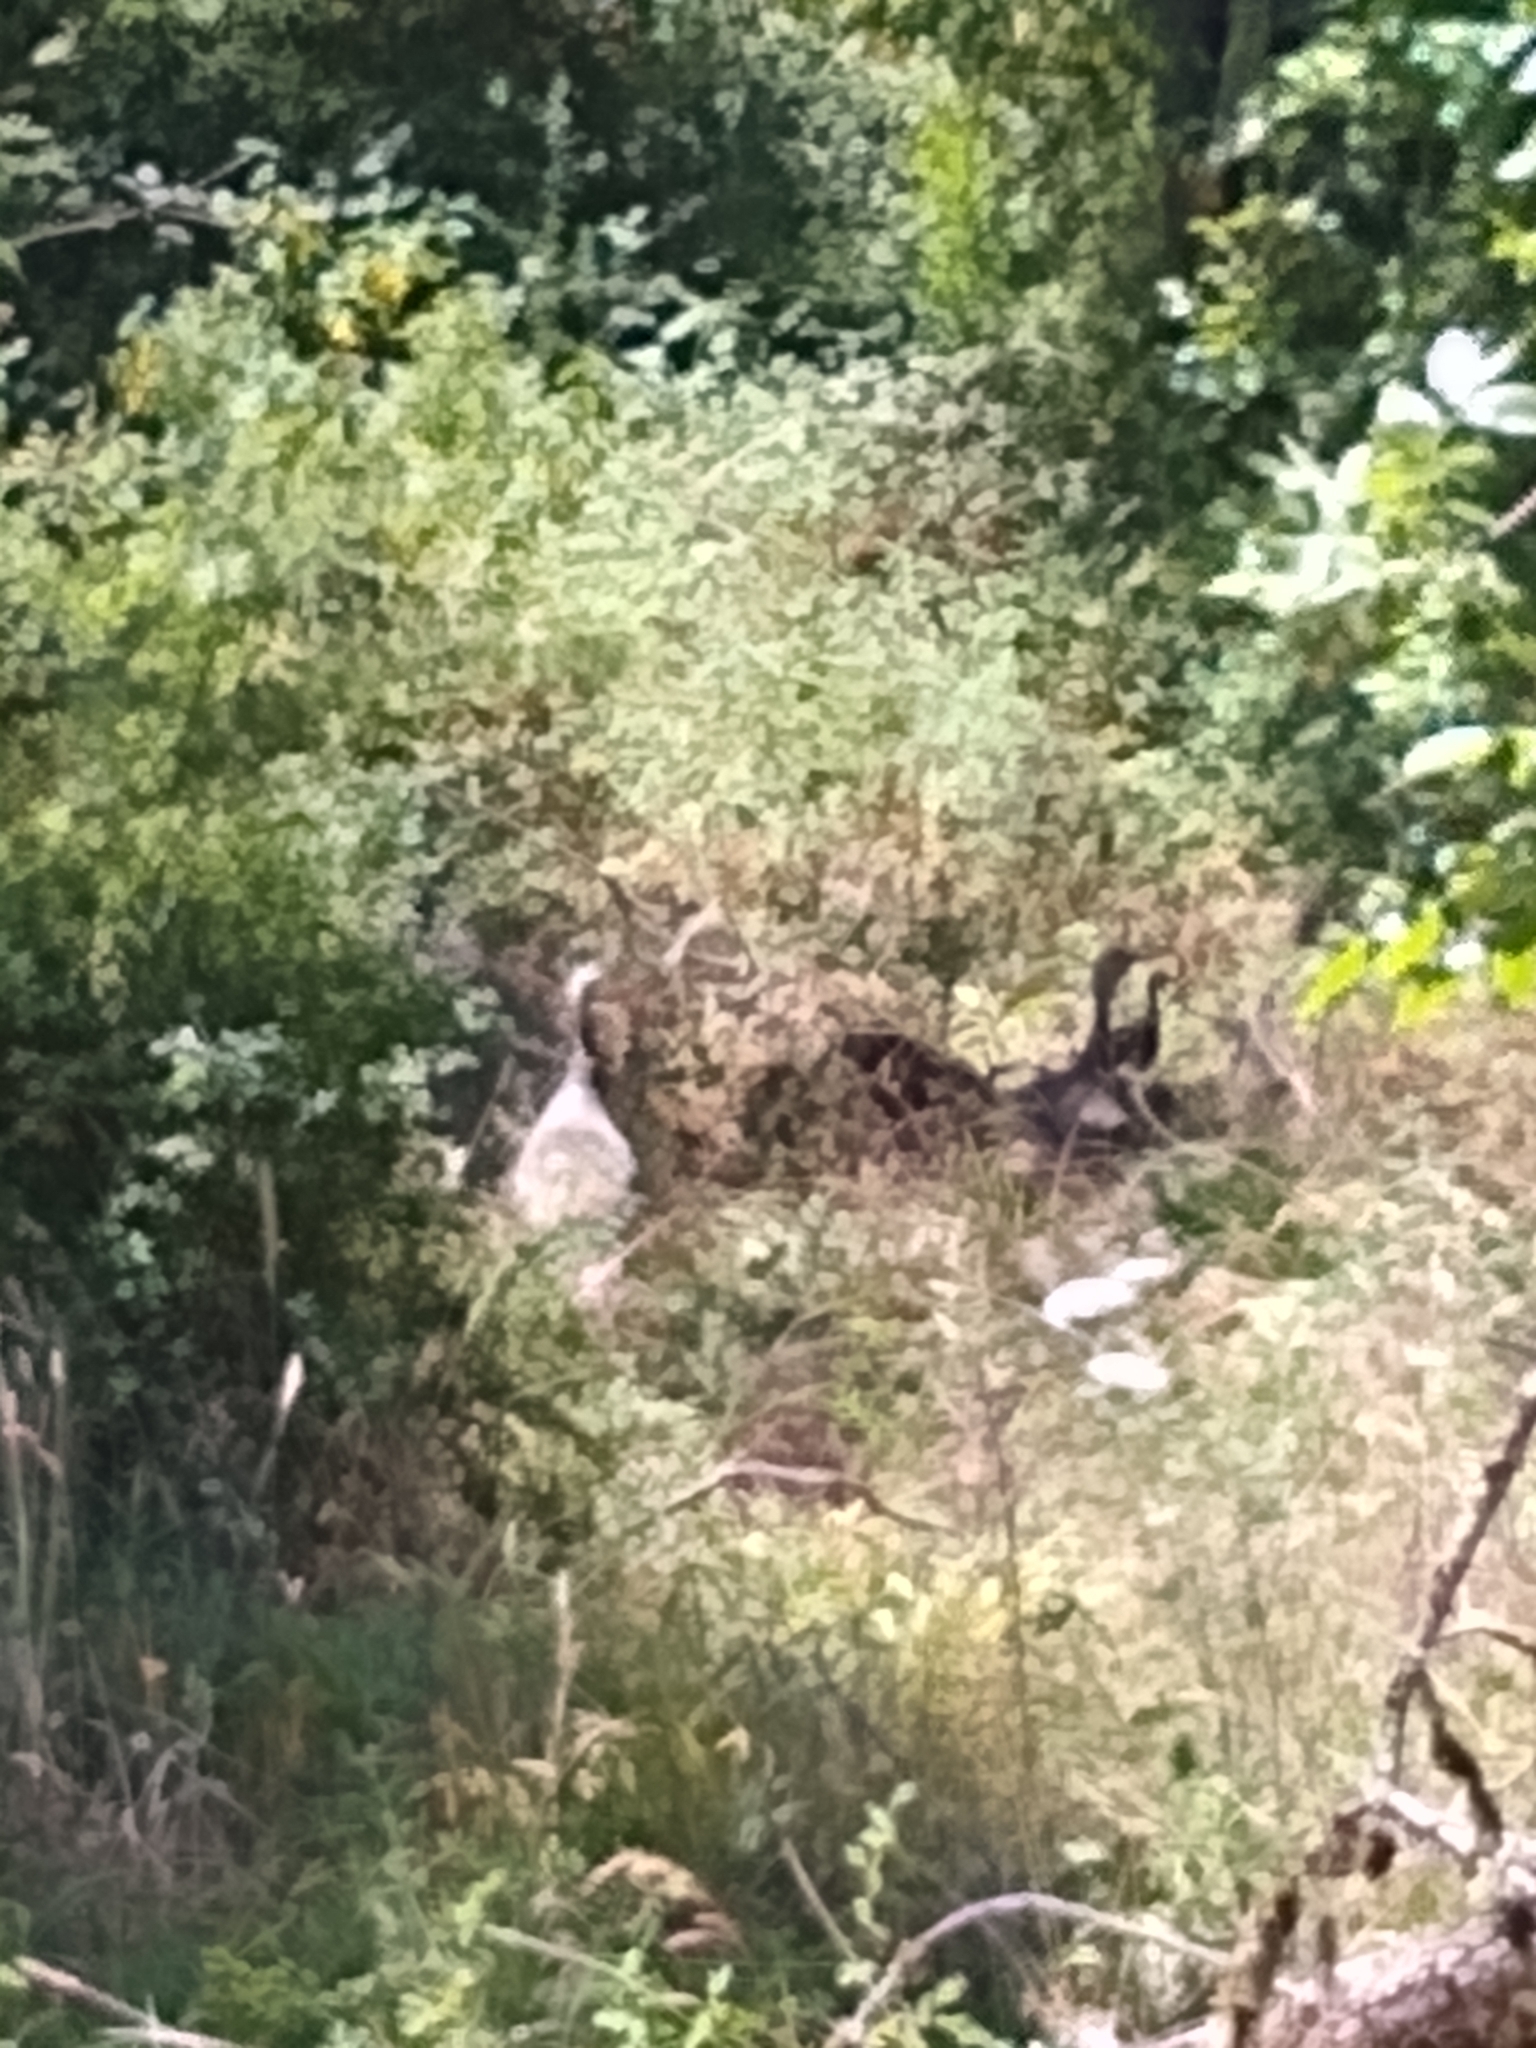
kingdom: Animalia
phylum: Chordata
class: Aves
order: Galliformes
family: Phasianidae
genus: Meleagris
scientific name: Meleagris gallopavo
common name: Wild turkey
